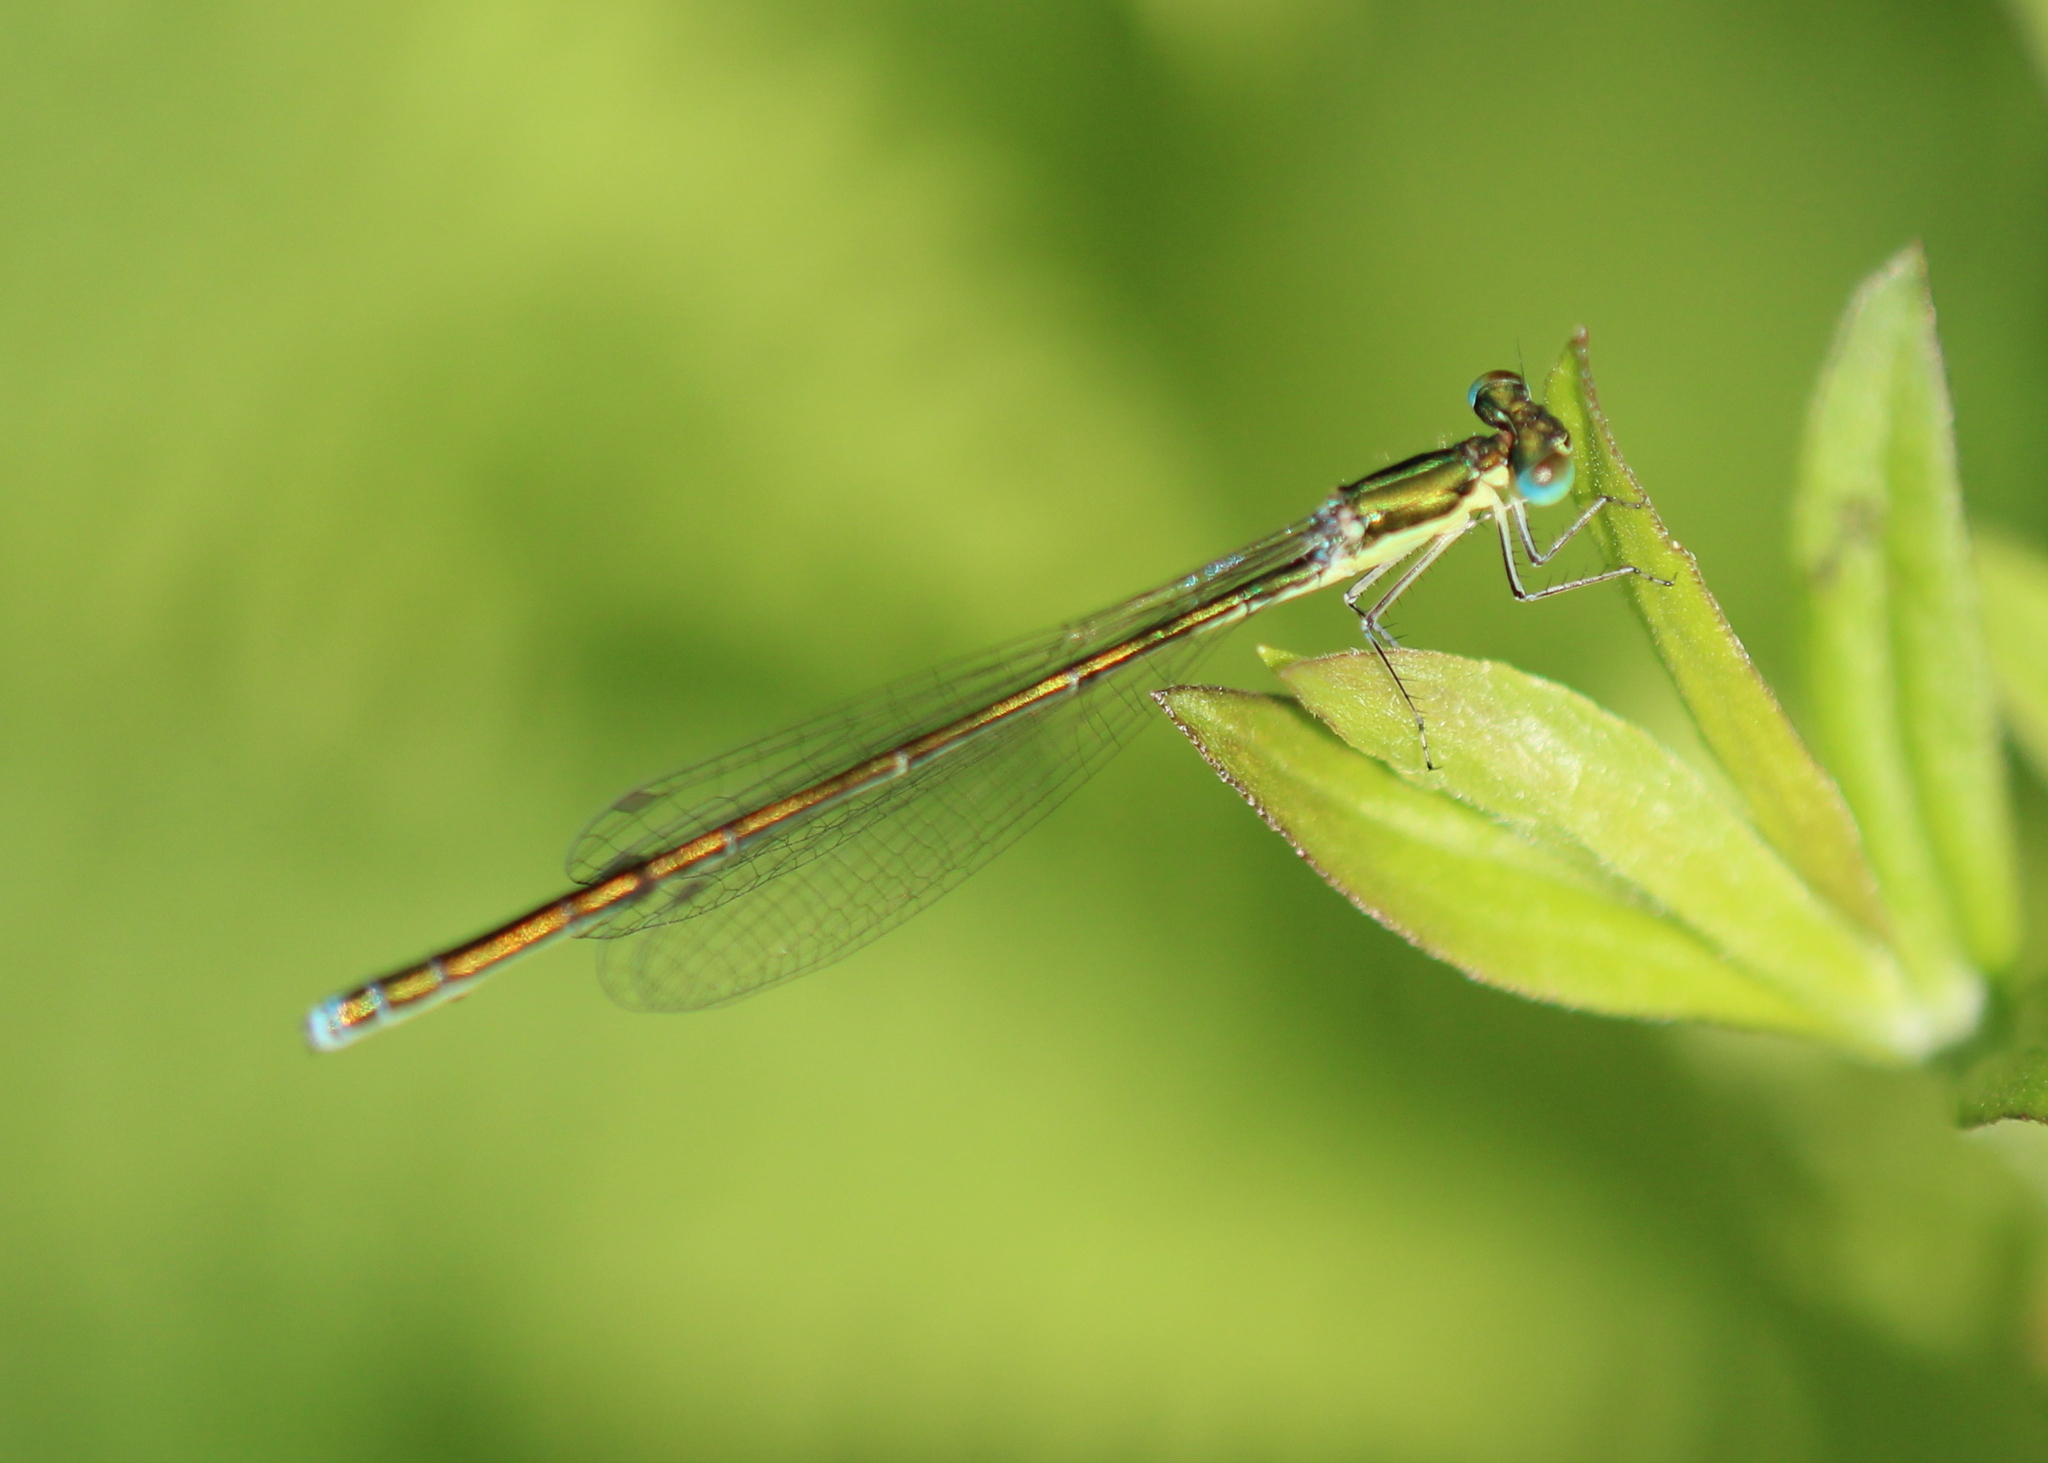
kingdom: Animalia
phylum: Arthropoda
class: Insecta
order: Odonata
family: Coenagrionidae
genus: Nehalennia
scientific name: Nehalennia irene
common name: Sedge sprite
